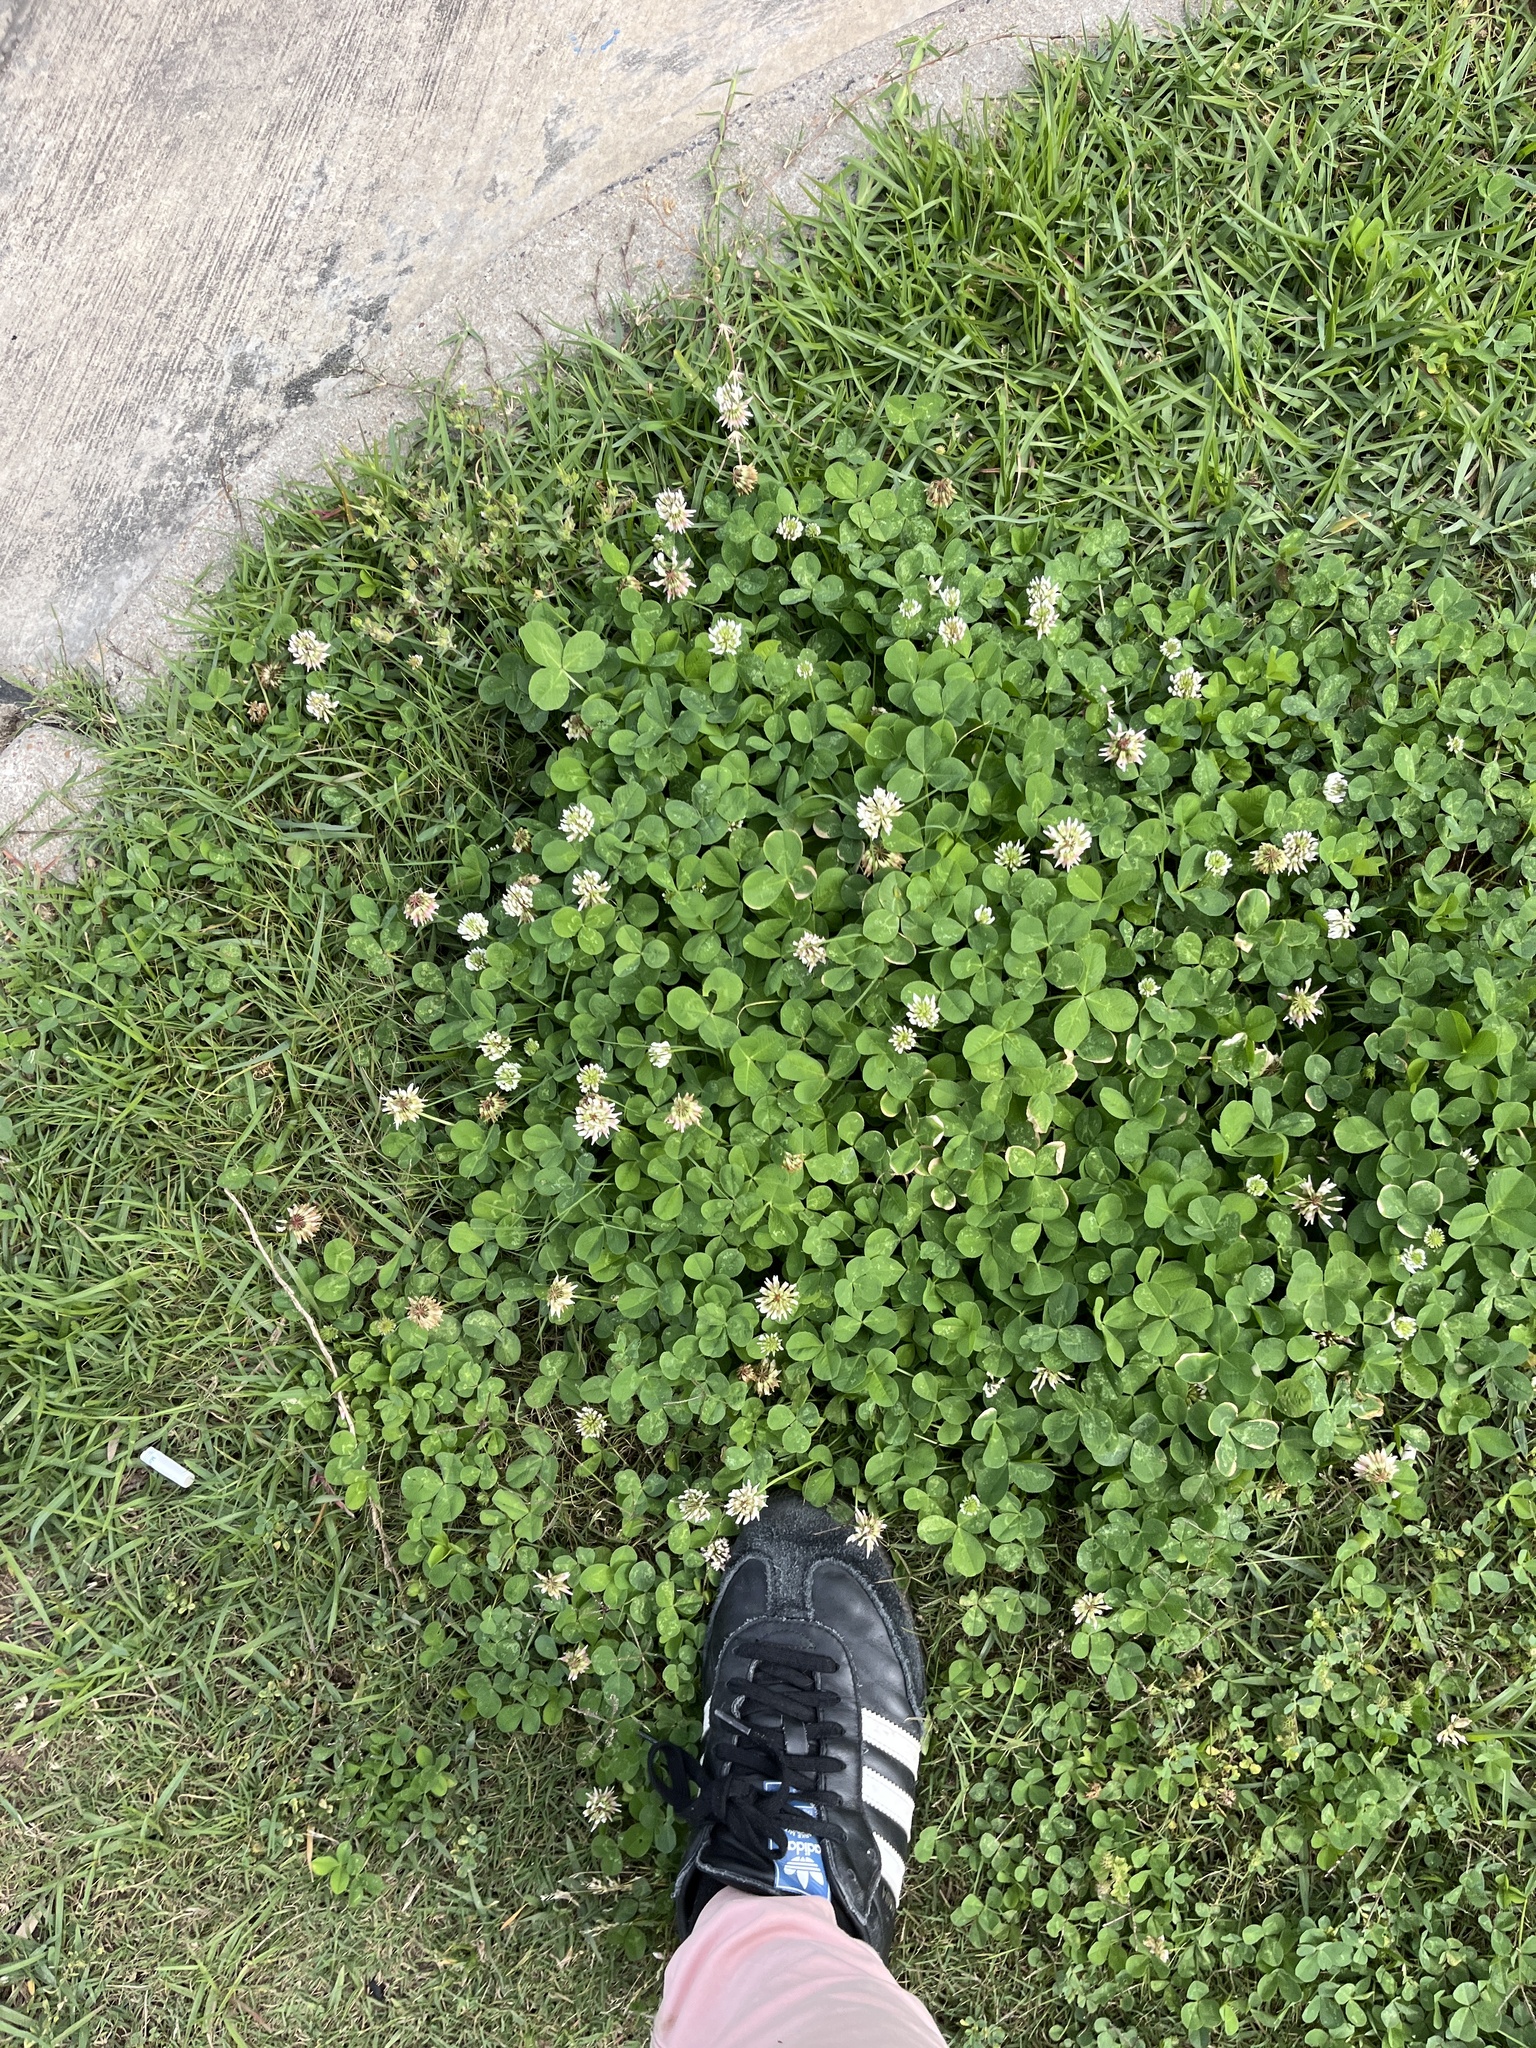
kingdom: Plantae
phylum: Tracheophyta
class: Magnoliopsida
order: Fabales
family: Fabaceae
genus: Trifolium
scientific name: Trifolium repens
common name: White clover
